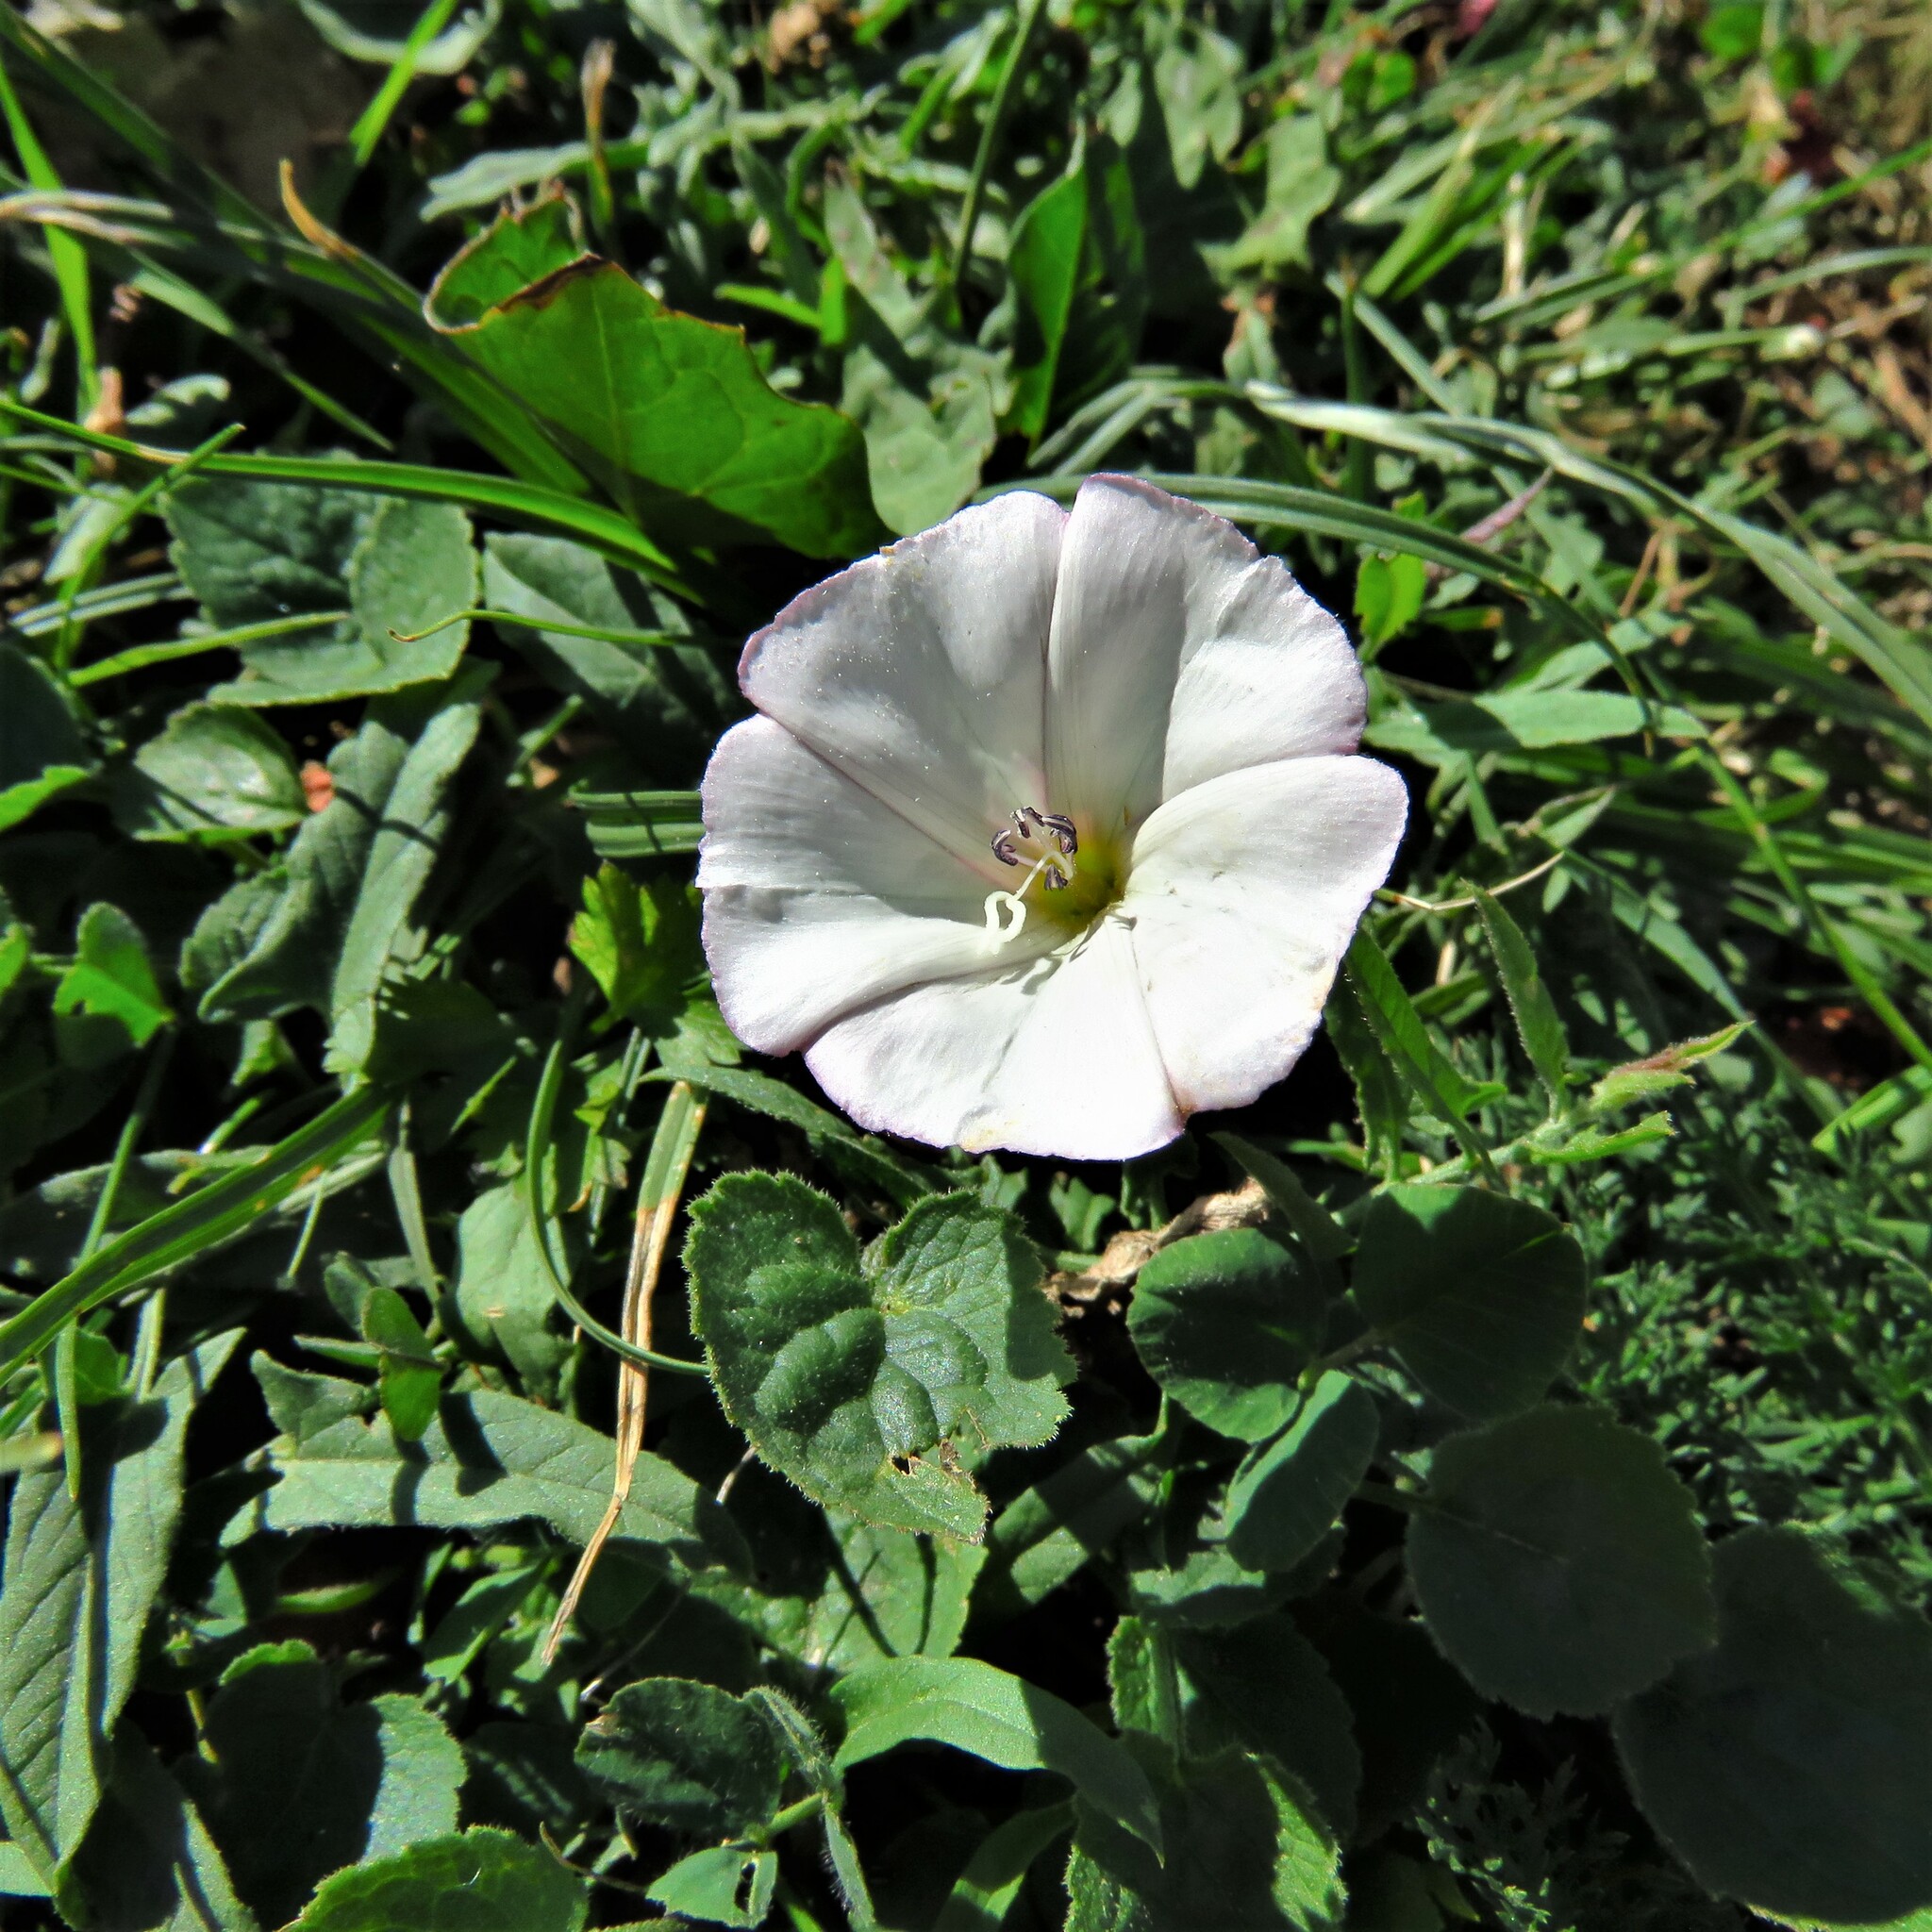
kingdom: Plantae
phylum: Tracheophyta
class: Magnoliopsida
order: Solanales
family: Convolvulaceae
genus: Convolvulus
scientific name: Convolvulus arvensis
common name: Field bindweed
